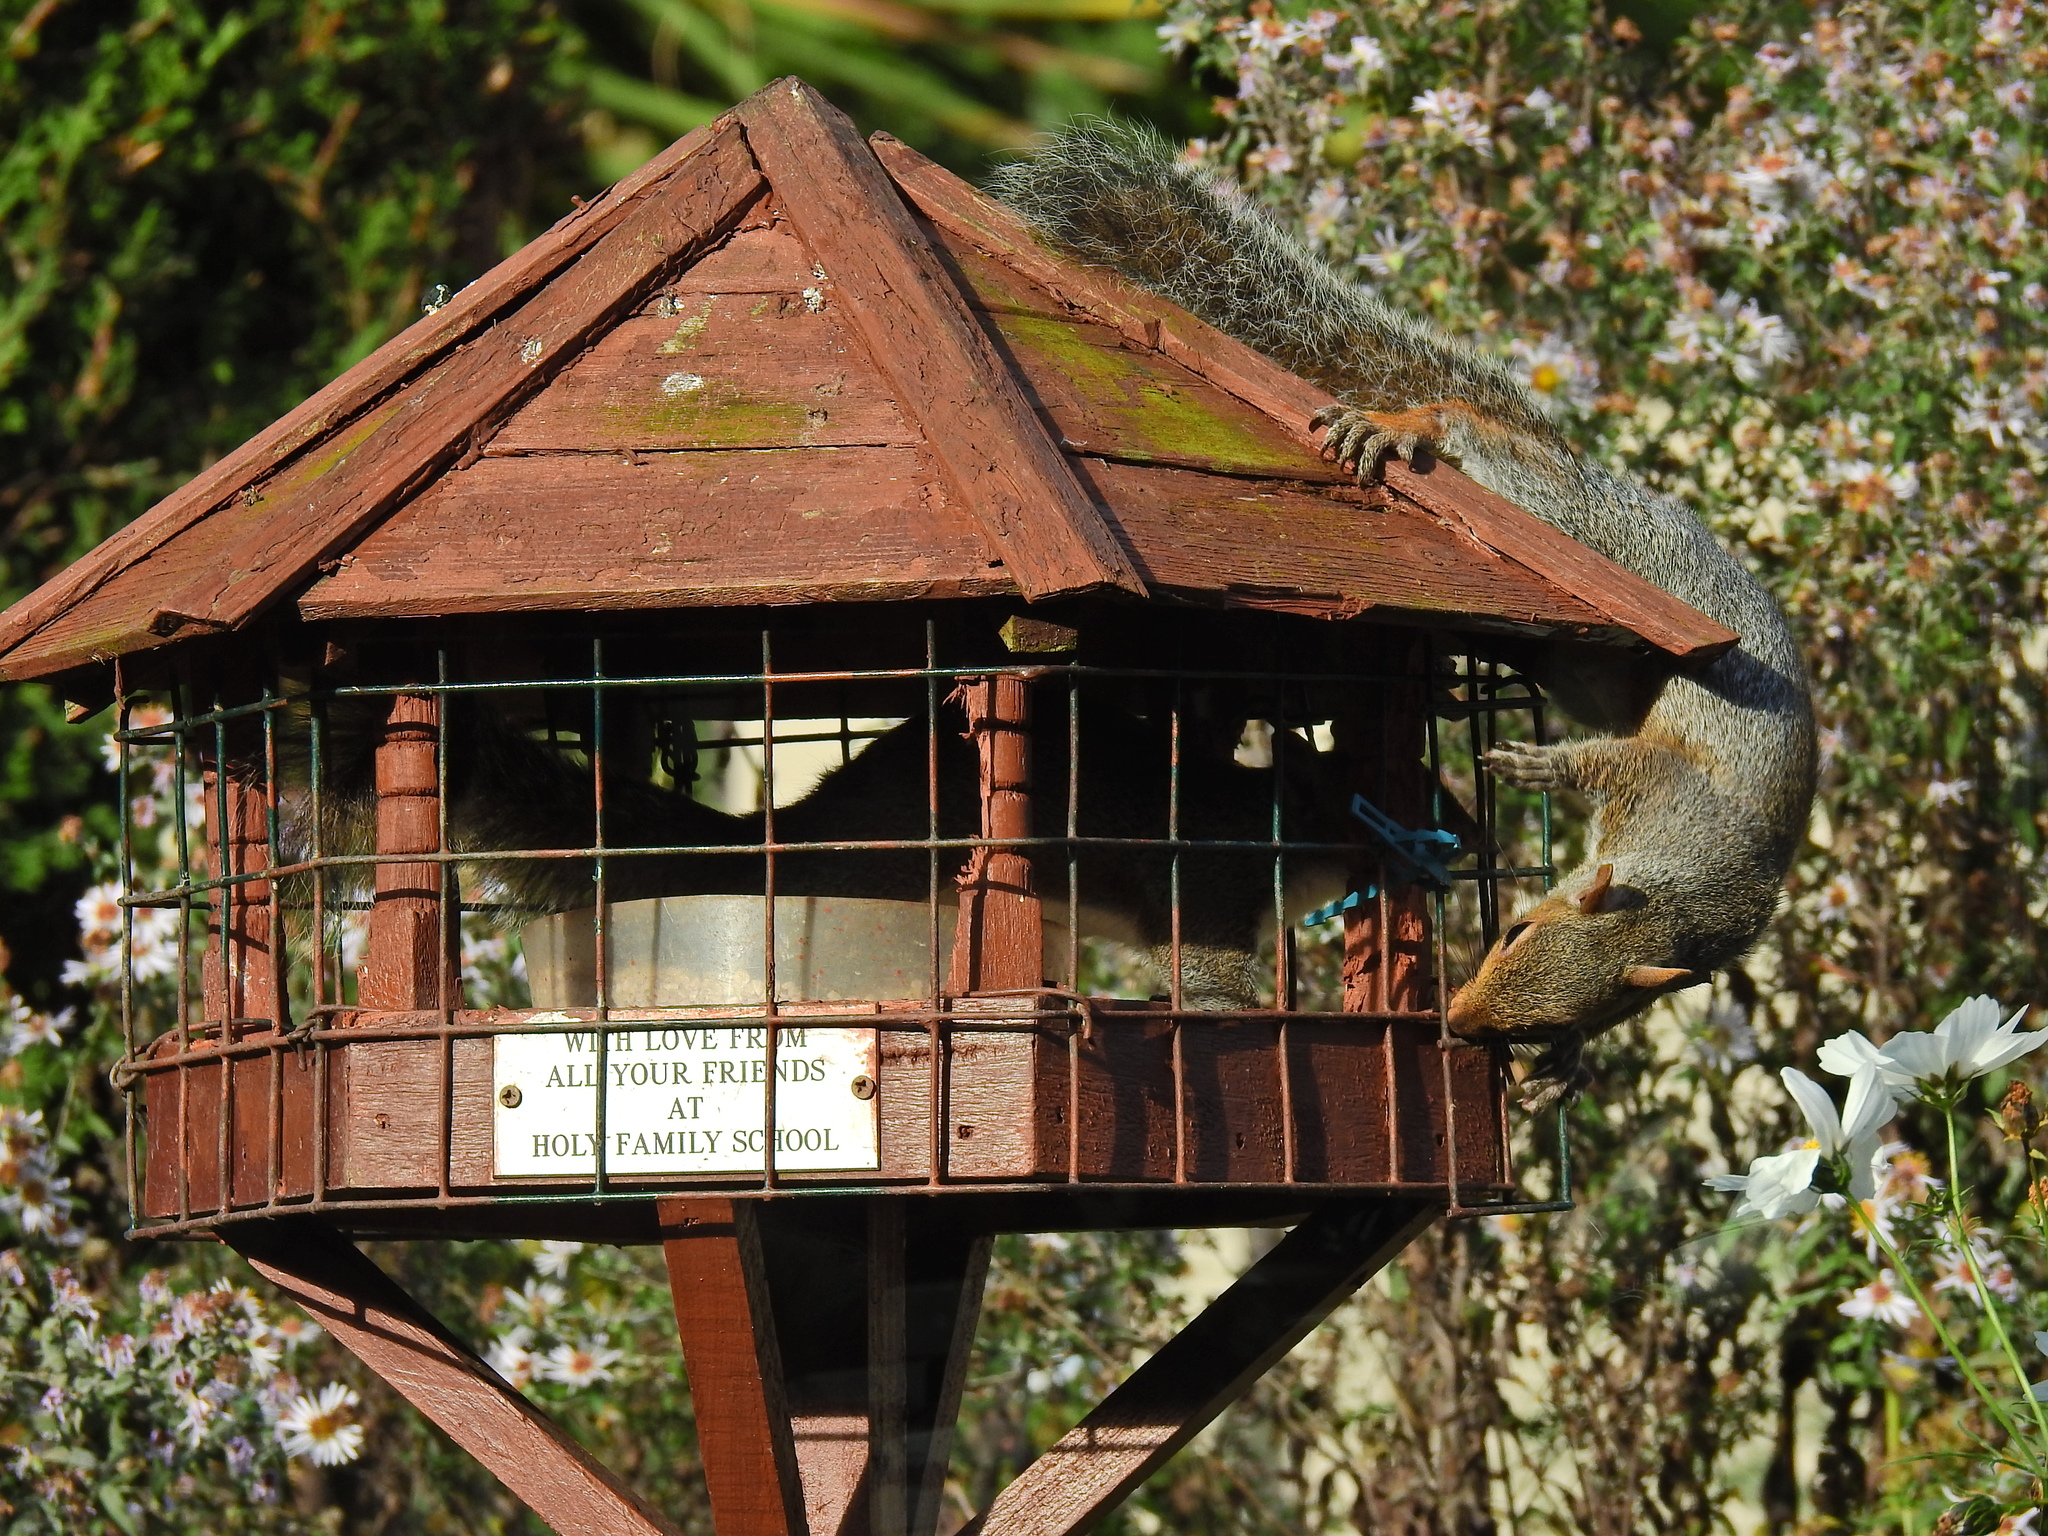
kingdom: Animalia
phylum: Chordata
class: Mammalia
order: Rodentia
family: Sciuridae
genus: Sciurus
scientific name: Sciurus carolinensis
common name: Eastern gray squirrel
